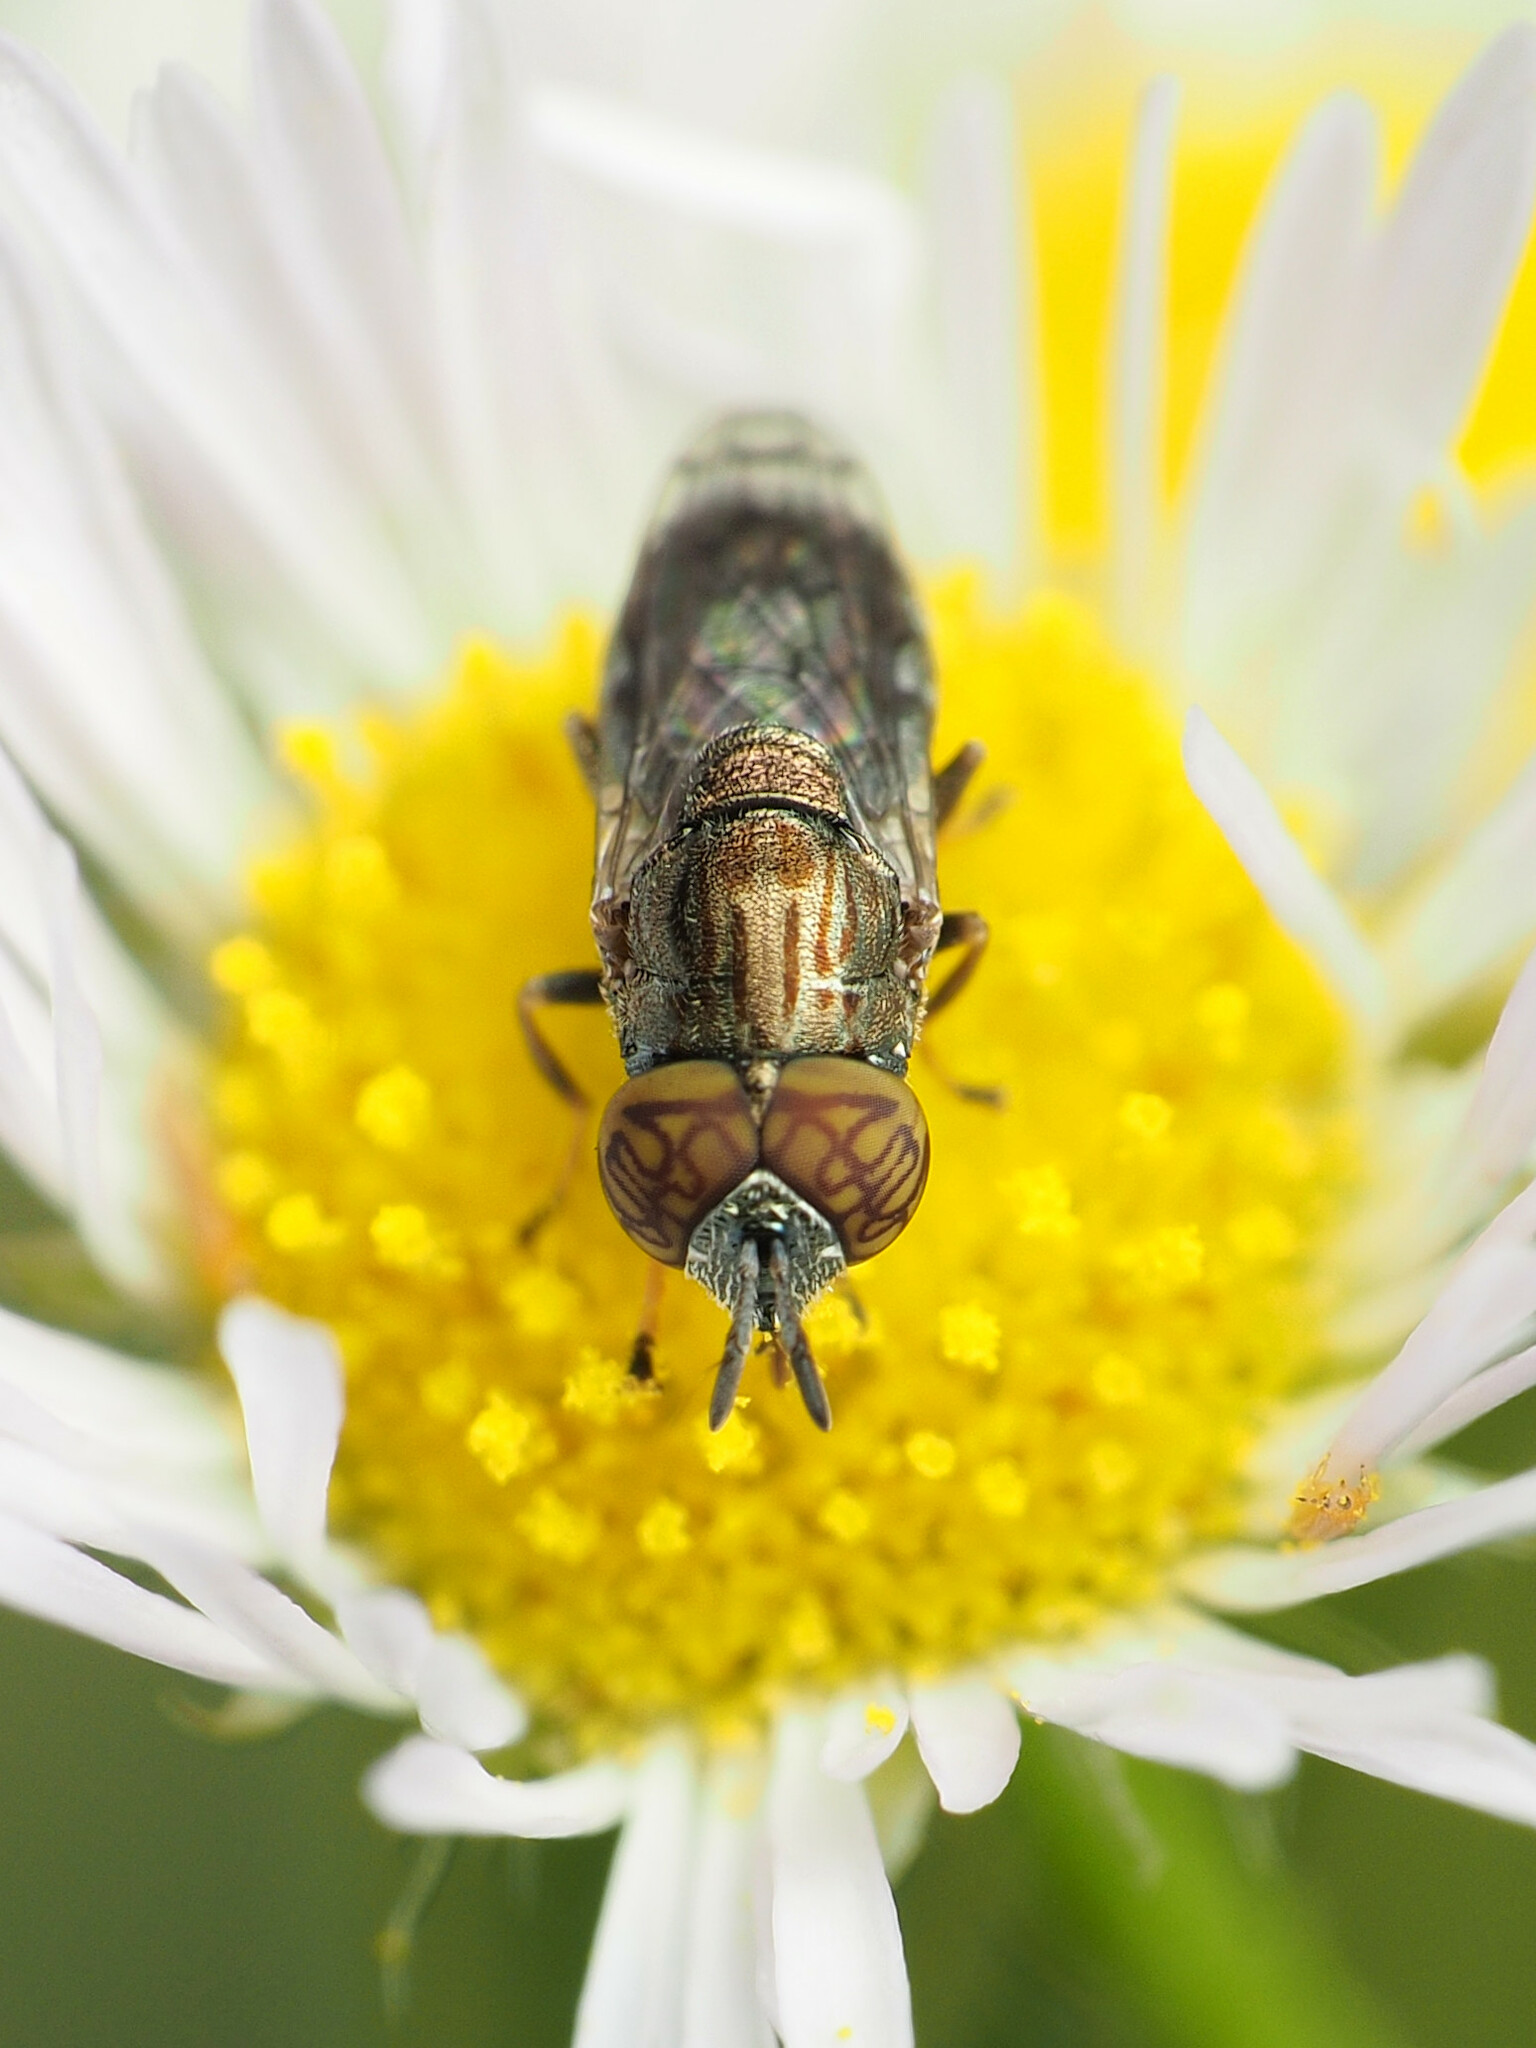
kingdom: Animalia
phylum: Arthropoda
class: Insecta
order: Diptera
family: Syrphidae
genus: Orthonevra
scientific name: Orthonevra nitida
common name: Wavy mucksucker
